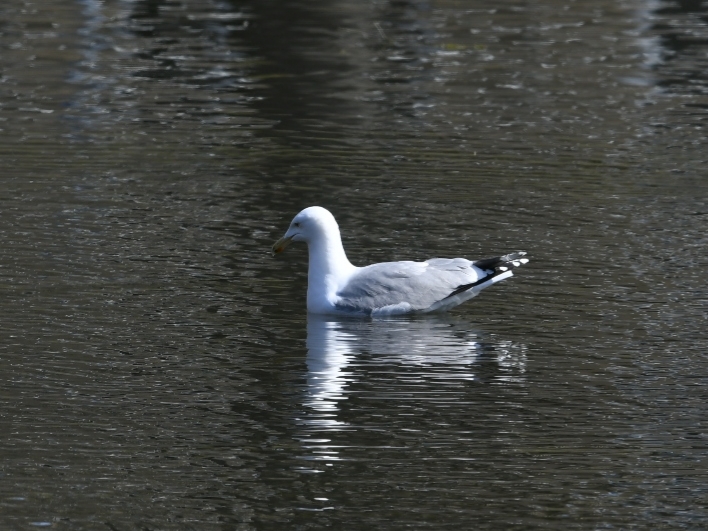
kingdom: Animalia
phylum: Chordata
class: Aves
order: Charadriiformes
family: Laridae
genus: Larus
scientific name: Larus argentatus
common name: Herring gull
